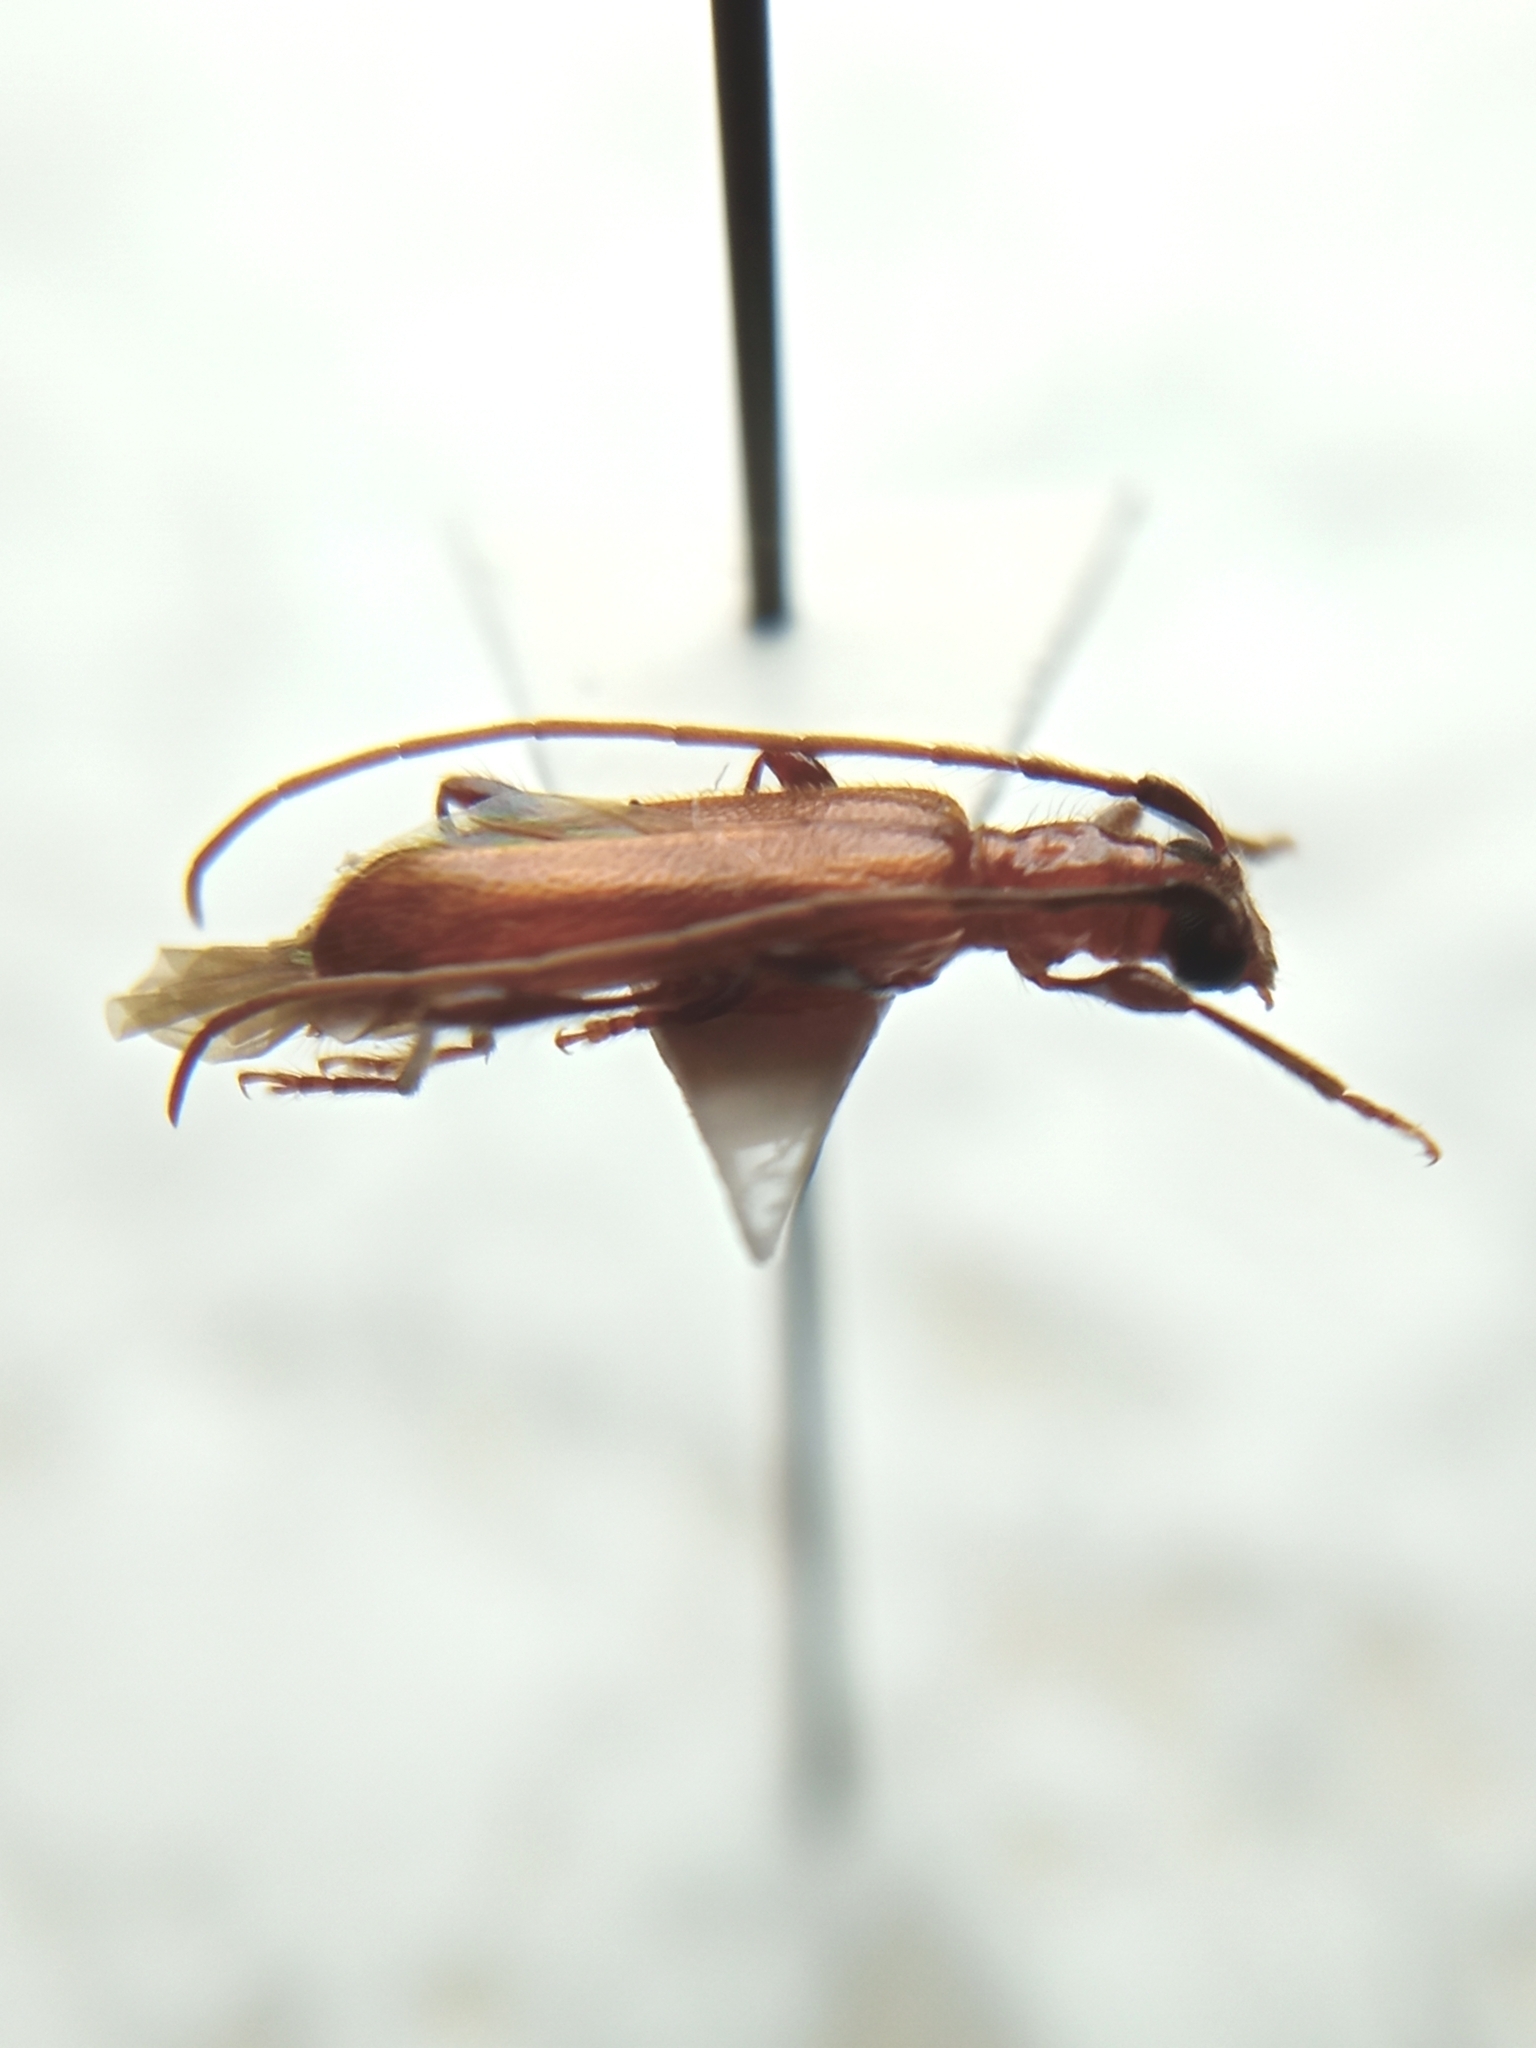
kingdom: Animalia
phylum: Arthropoda
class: Insecta
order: Coleoptera
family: Cerambycidae
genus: Obrium
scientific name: Obrium cantharinum
